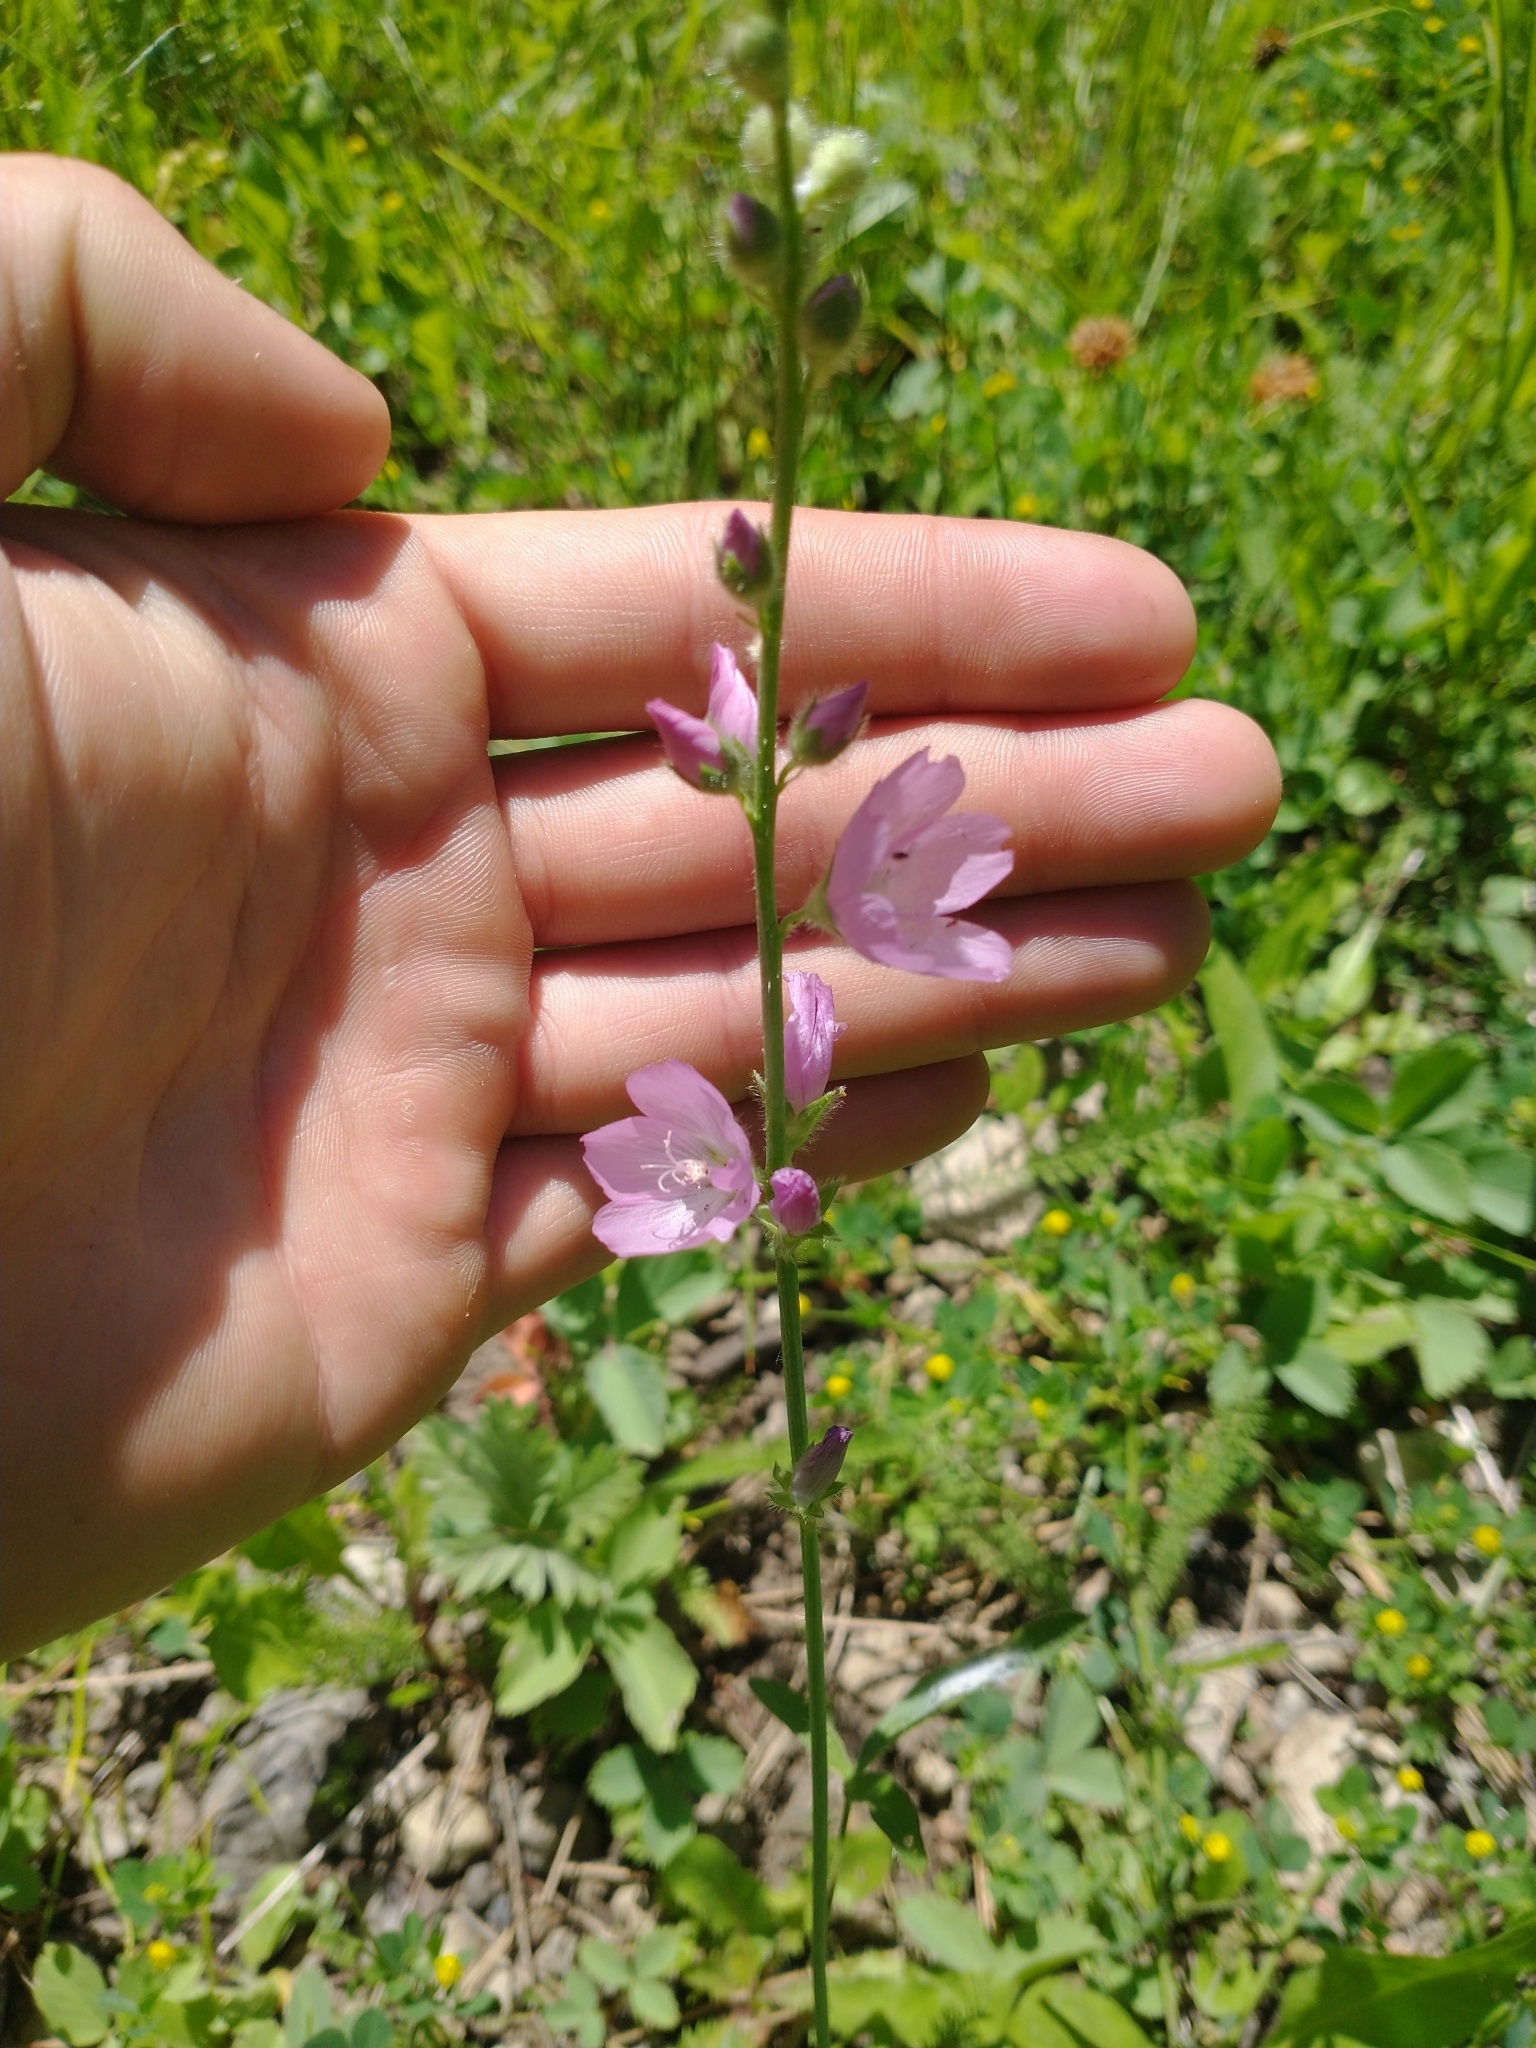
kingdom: Plantae
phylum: Tracheophyta
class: Magnoliopsida
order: Malvales
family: Malvaceae
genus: Sidalcea
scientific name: Sidalcea oregana
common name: Oregon checker-mallow
